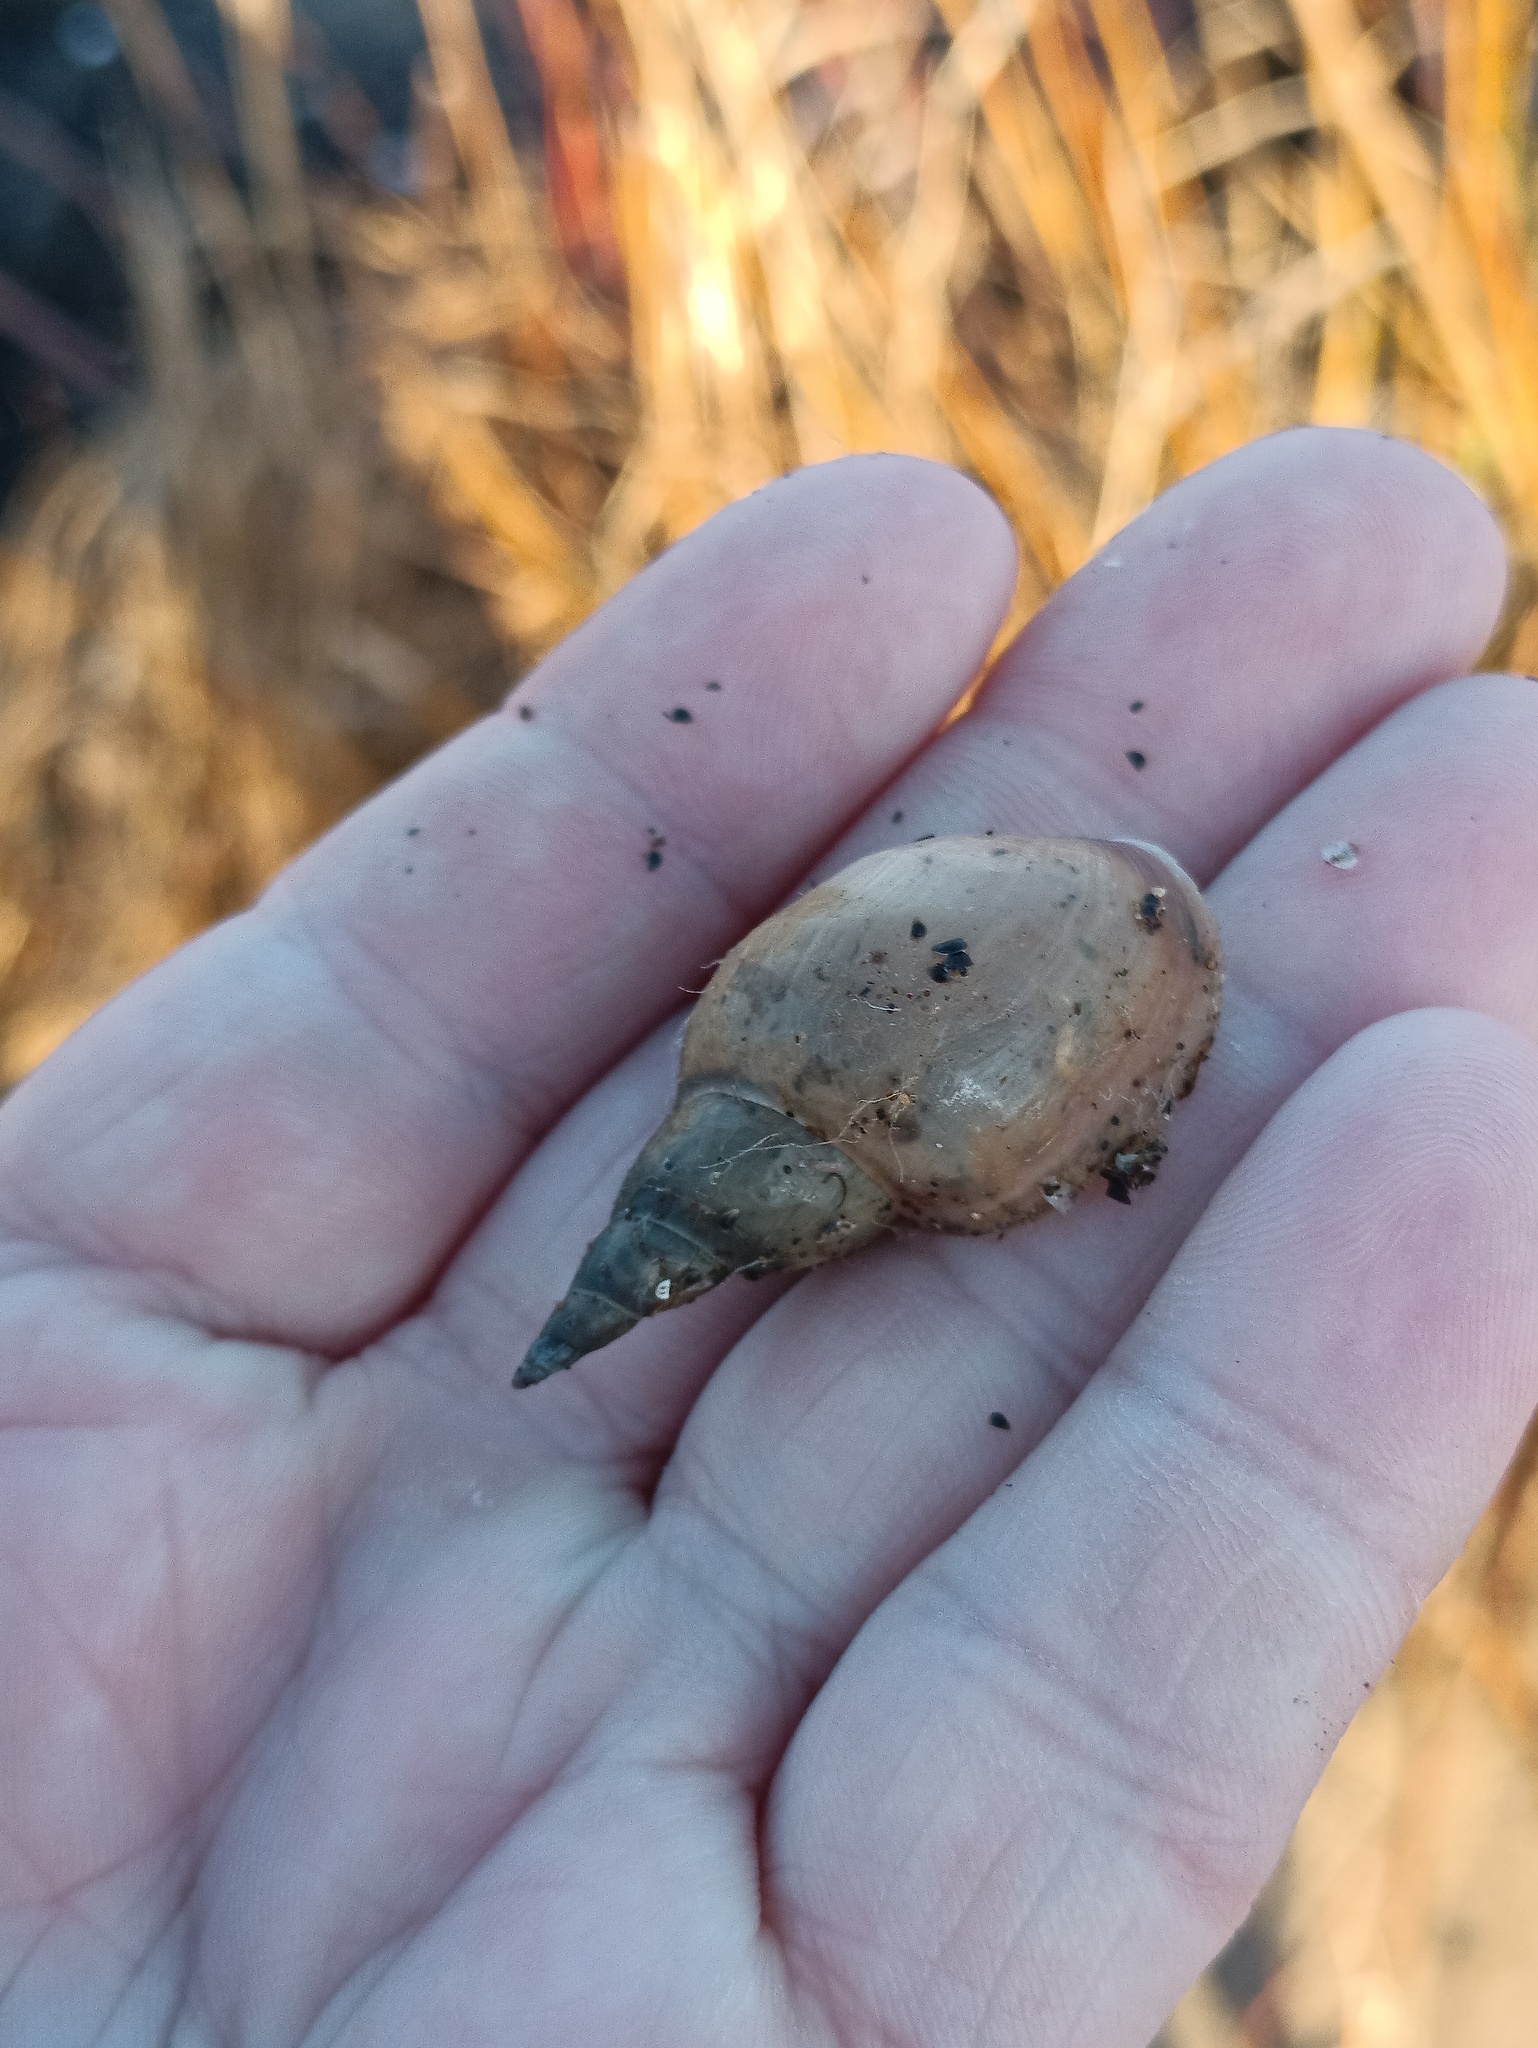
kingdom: Animalia
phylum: Mollusca
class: Gastropoda
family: Lymnaeidae
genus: Lymnaea
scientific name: Lymnaea stagnalis
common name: Great pond snail
